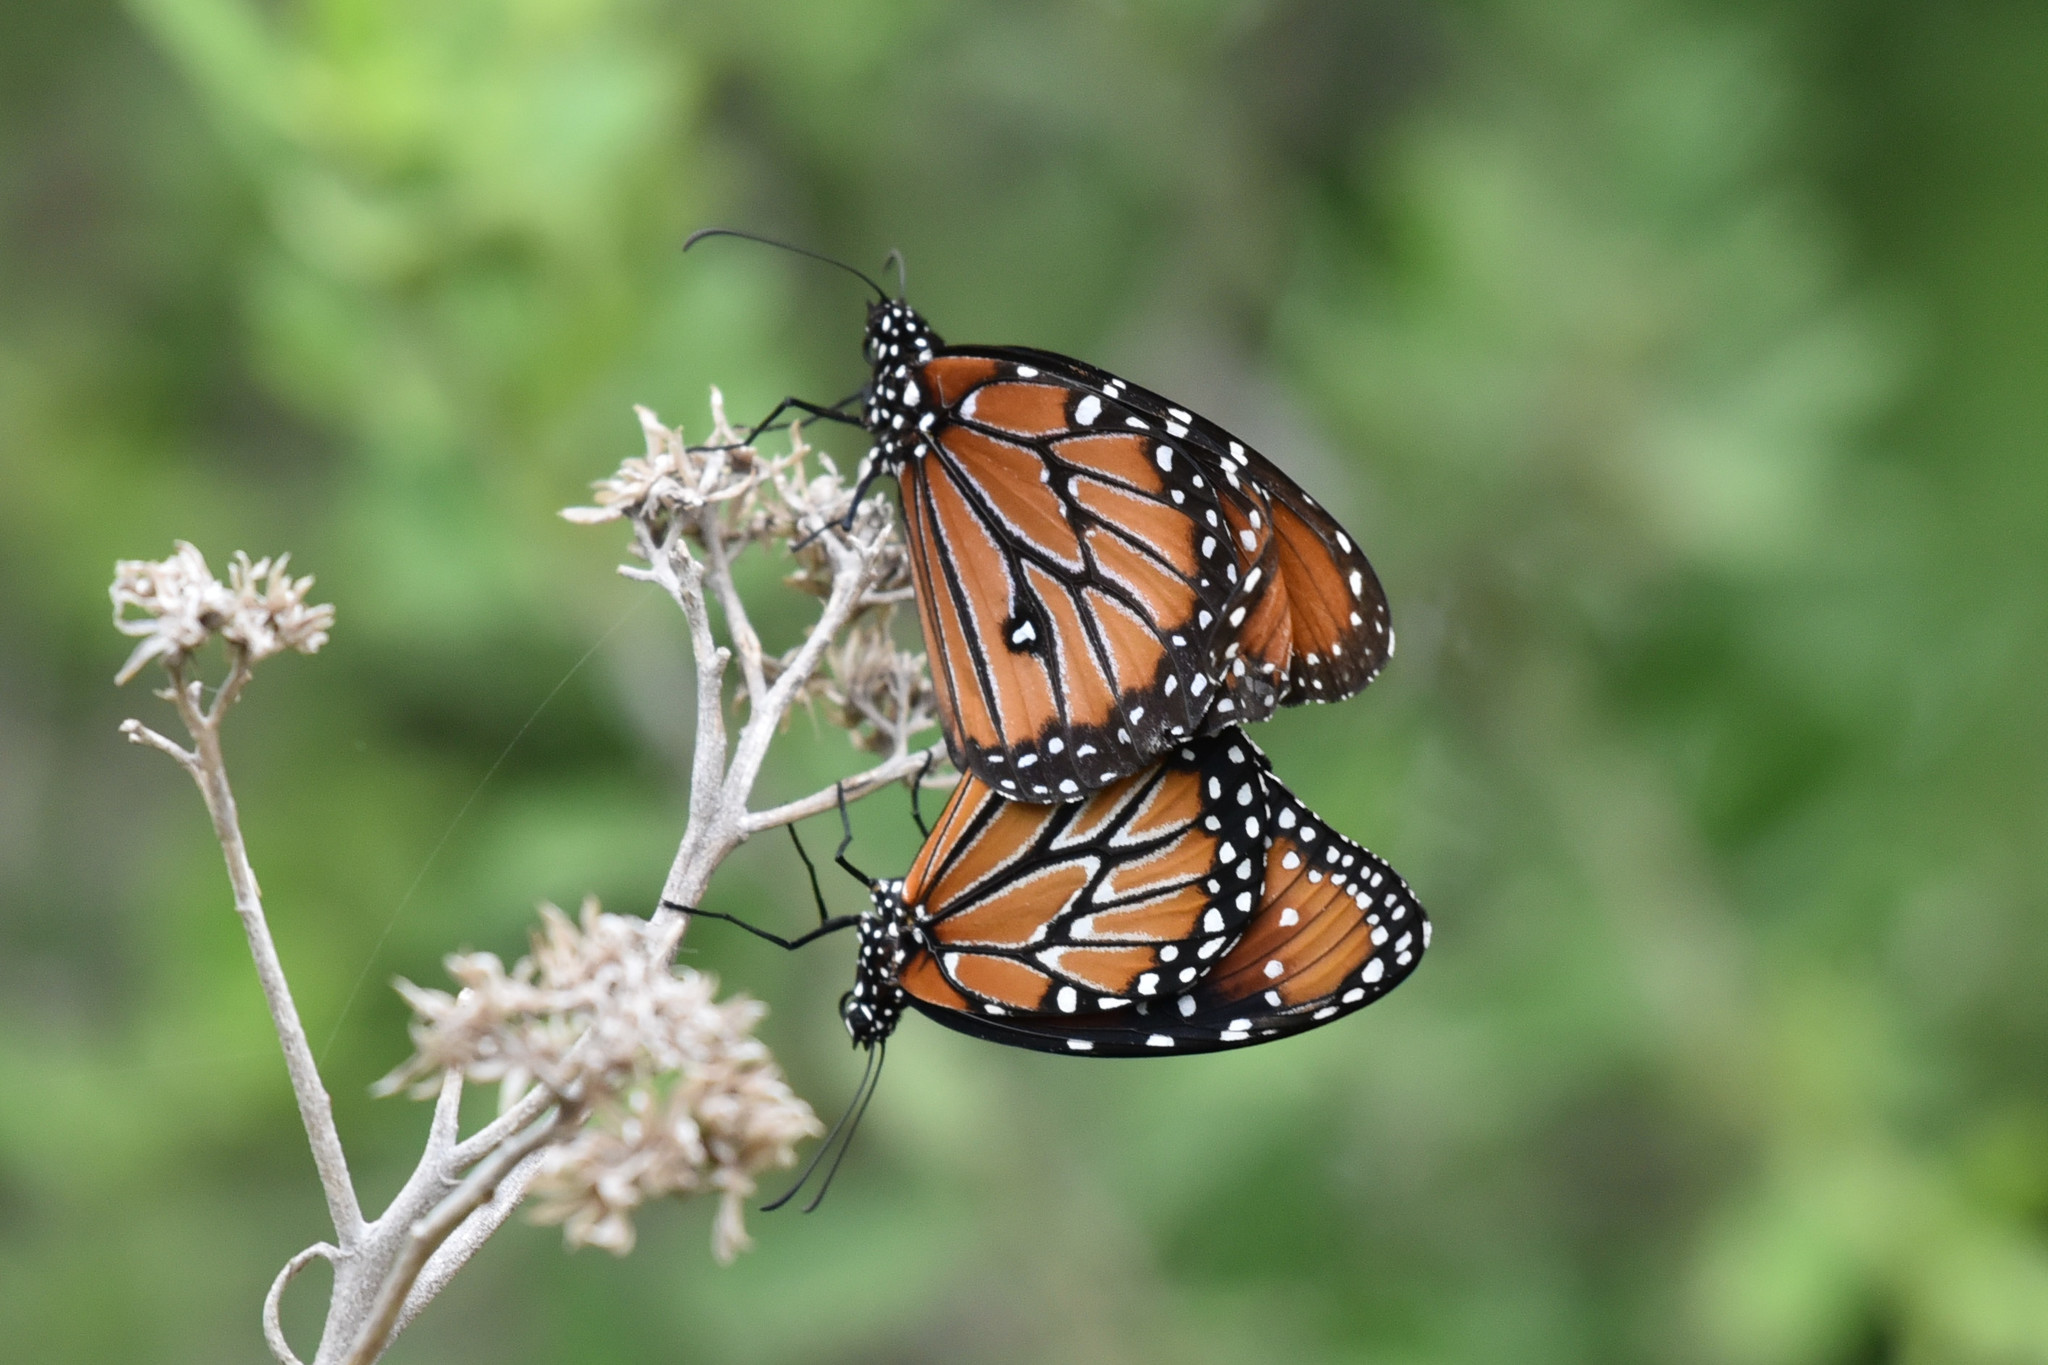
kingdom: Animalia
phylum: Arthropoda
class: Insecta
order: Lepidoptera
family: Nymphalidae
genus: Danaus
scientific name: Danaus gilippus
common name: Queen
